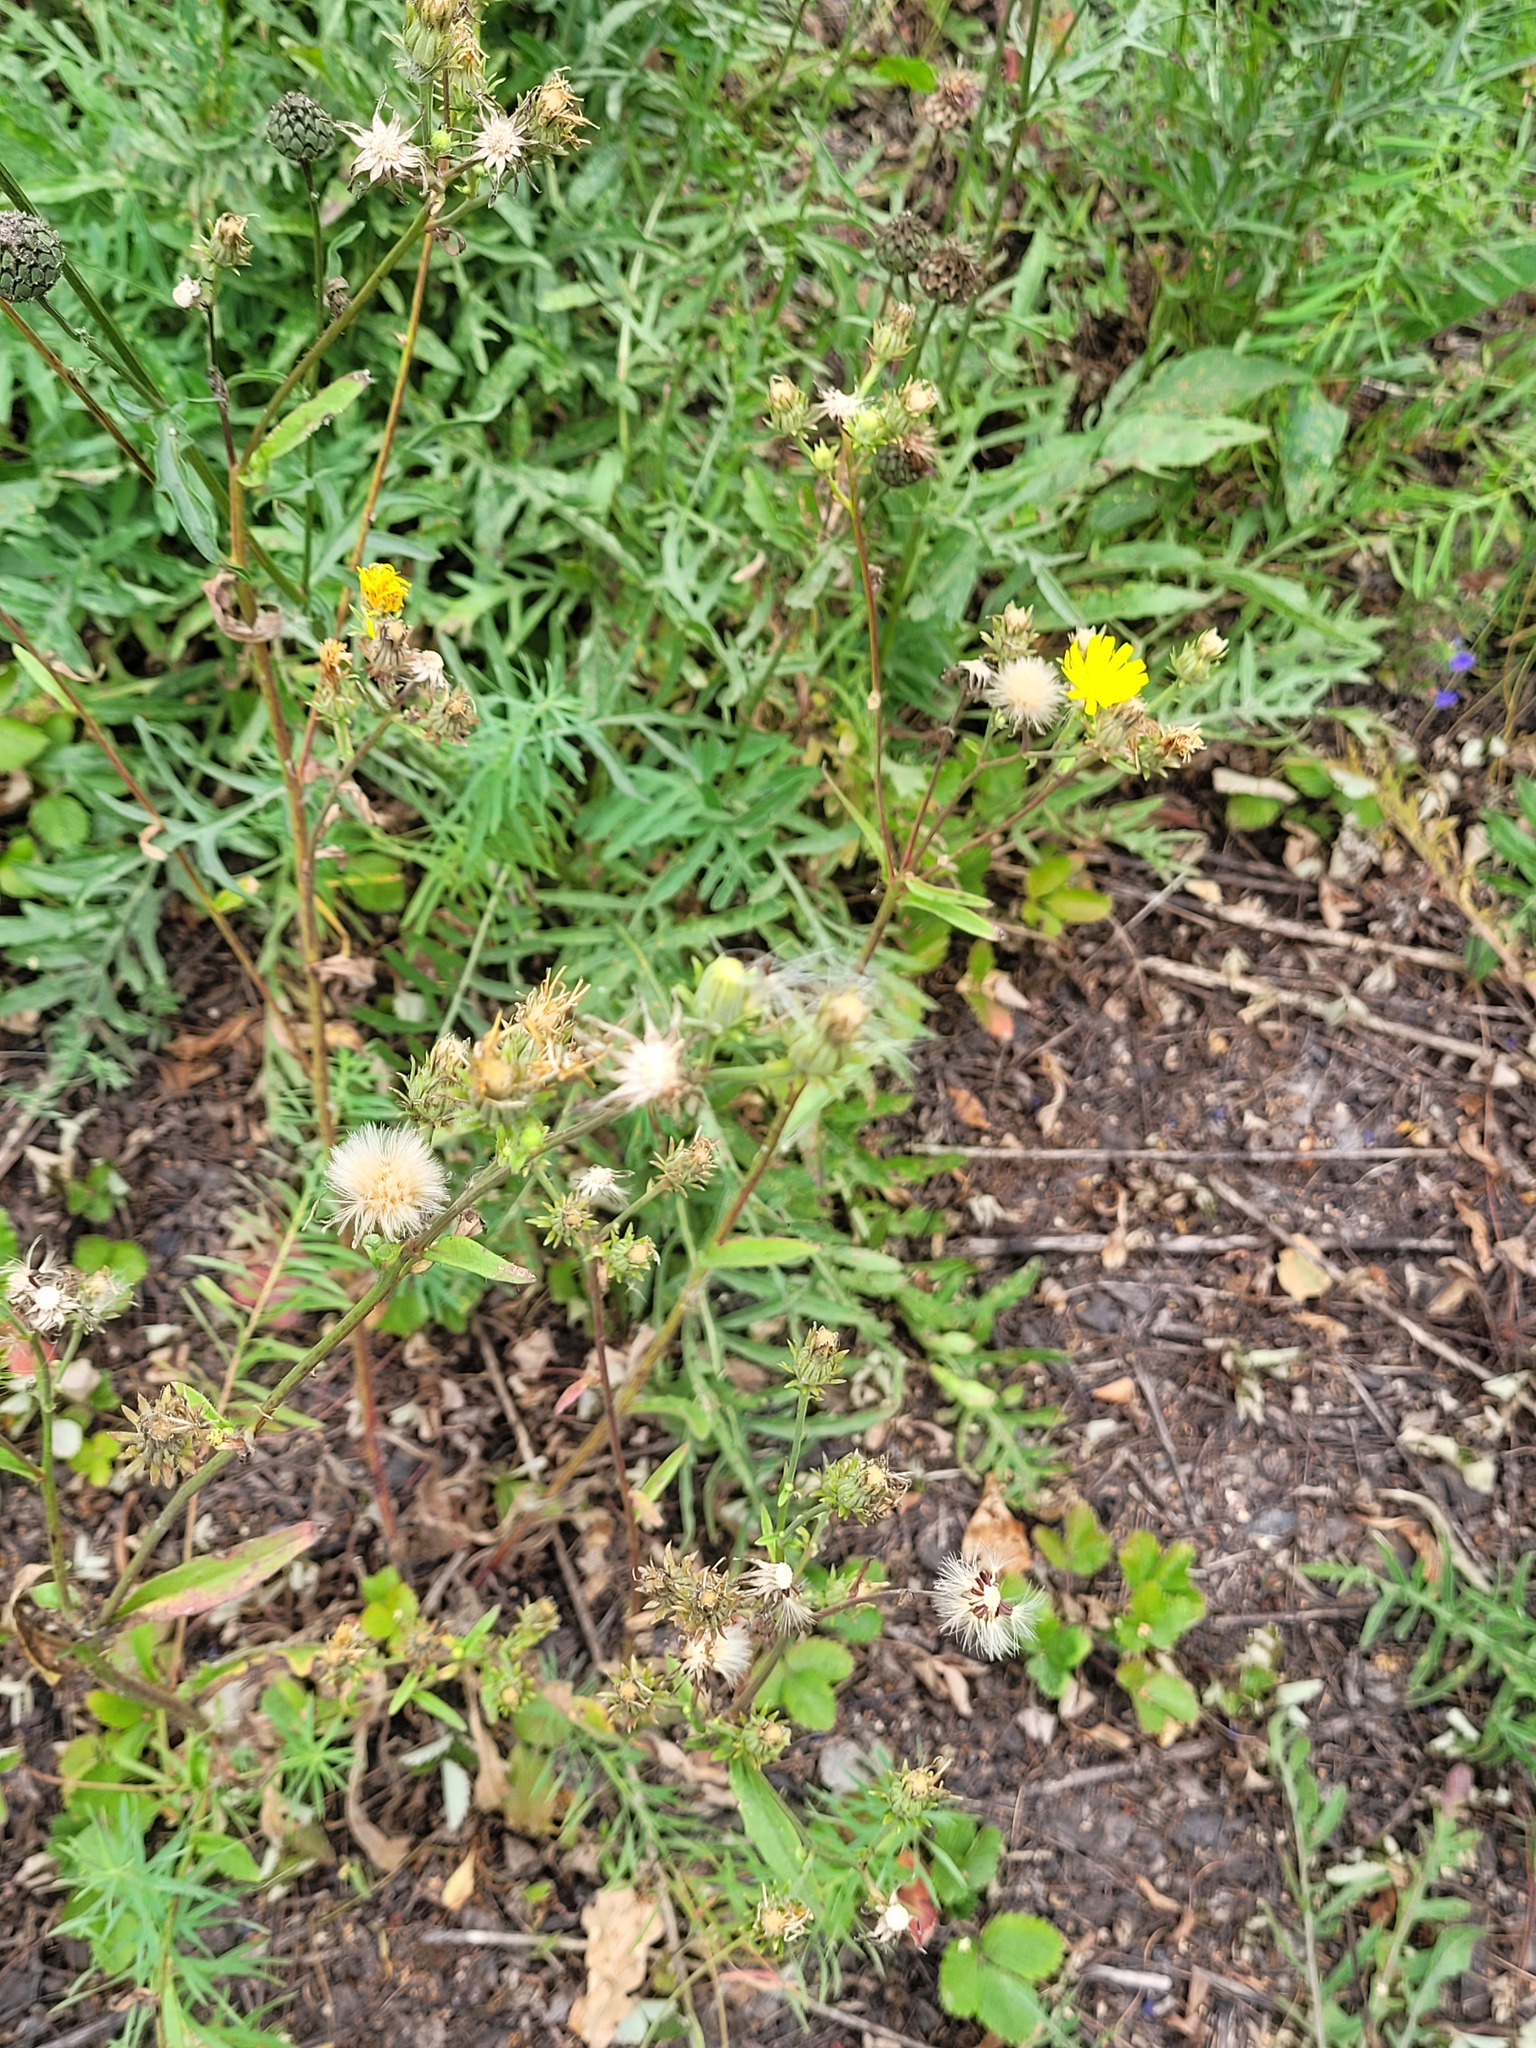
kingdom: Plantae
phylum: Tracheophyta
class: Magnoliopsida
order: Asterales
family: Asteraceae
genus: Picris
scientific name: Picris hieracioides
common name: Hawkweed oxtongue
